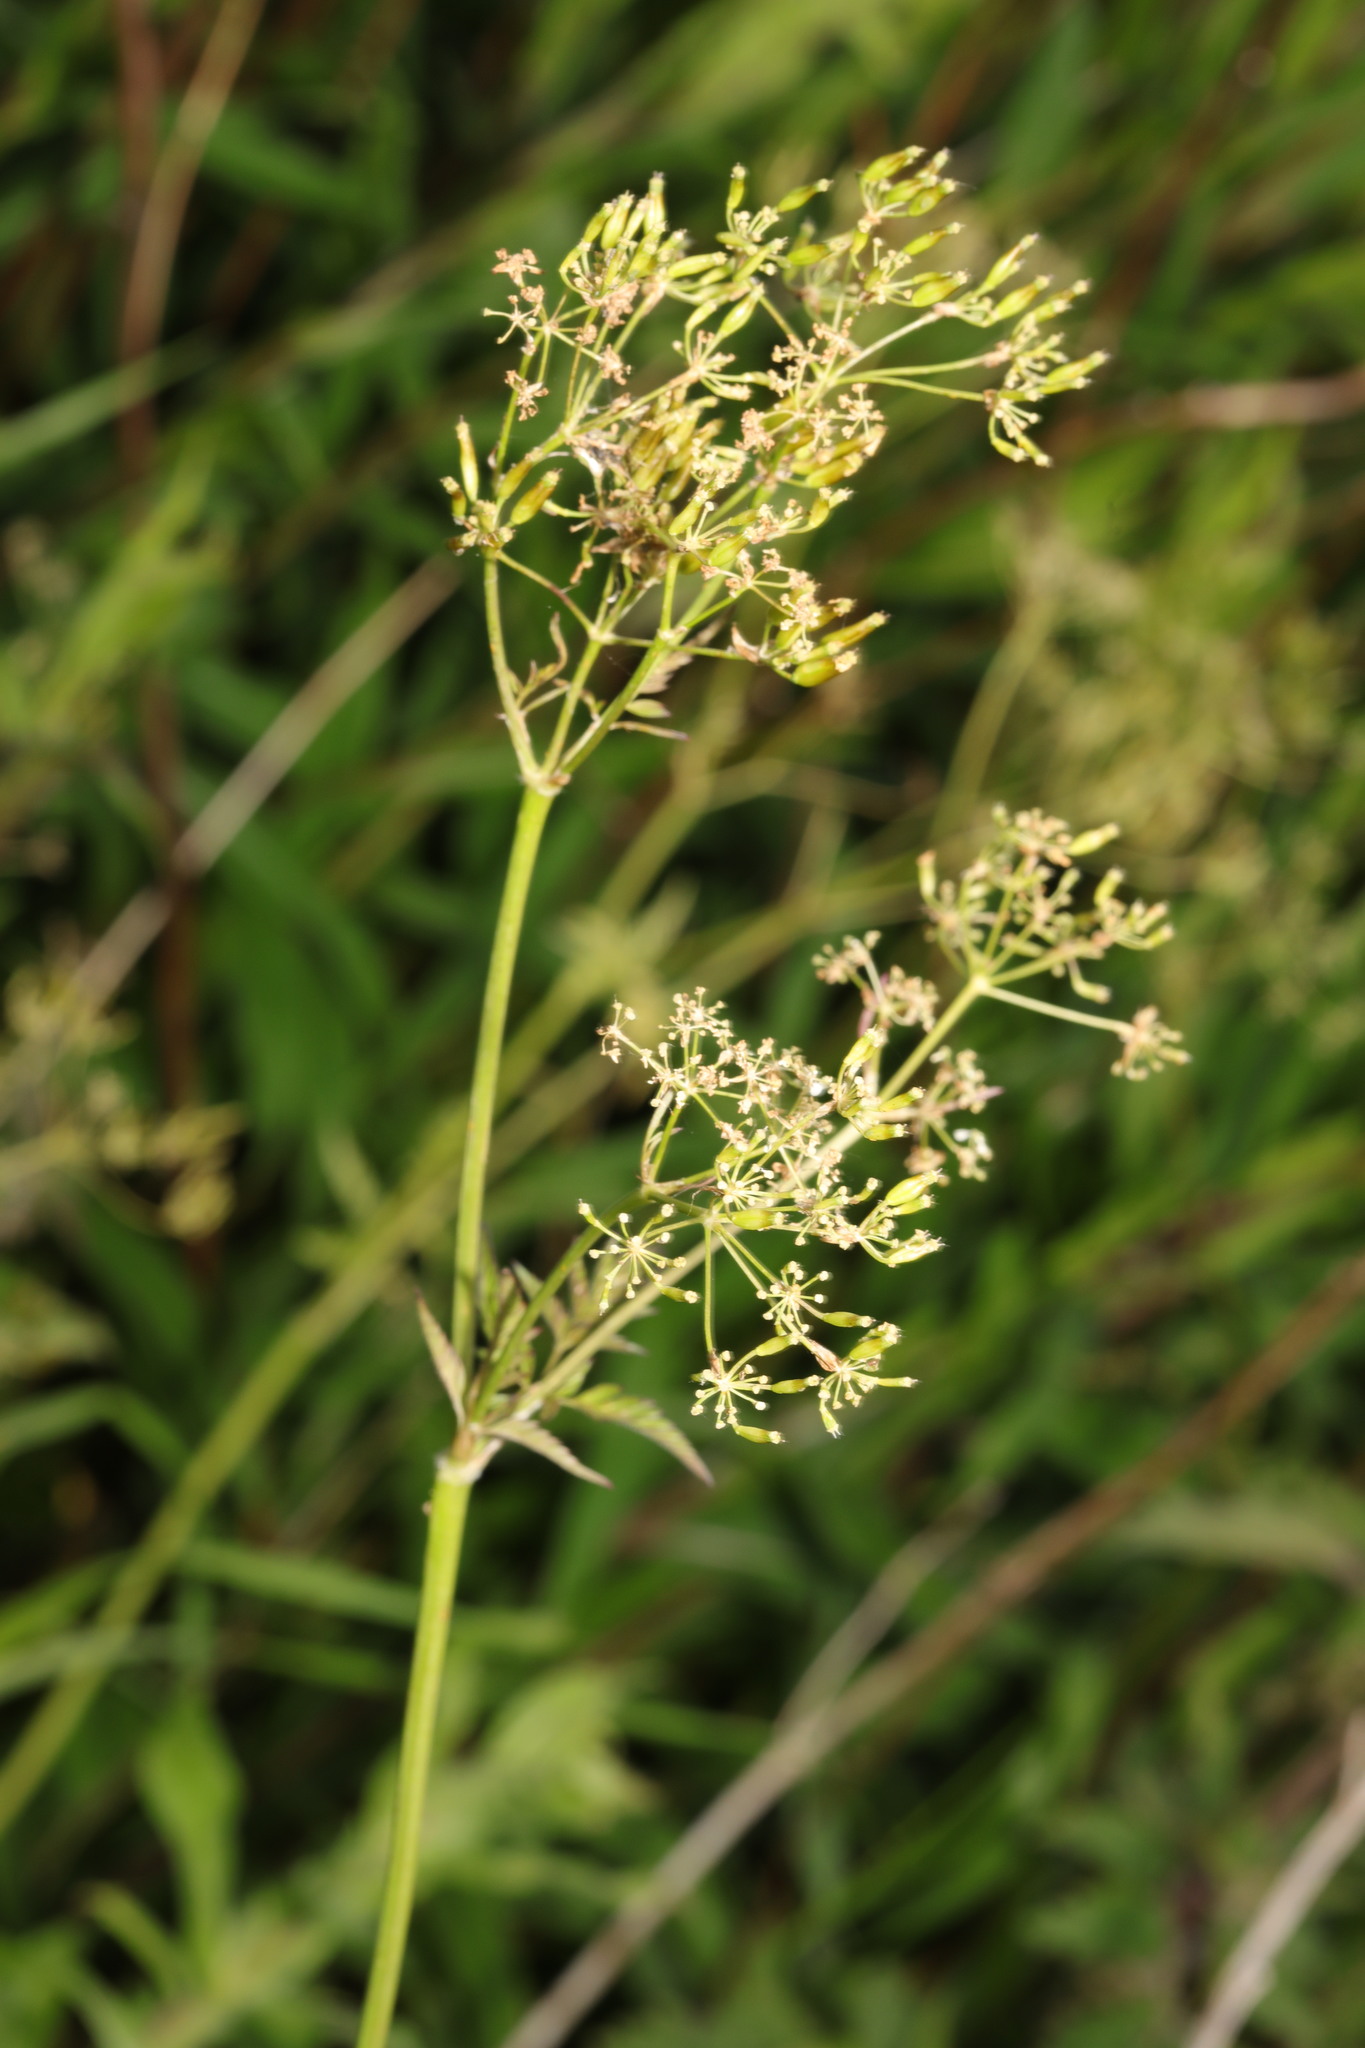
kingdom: Plantae
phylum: Tracheophyta
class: Magnoliopsida
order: Apiales
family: Apiaceae
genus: Anthriscus
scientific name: Anthriscus sylvestris
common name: Cow parsley
